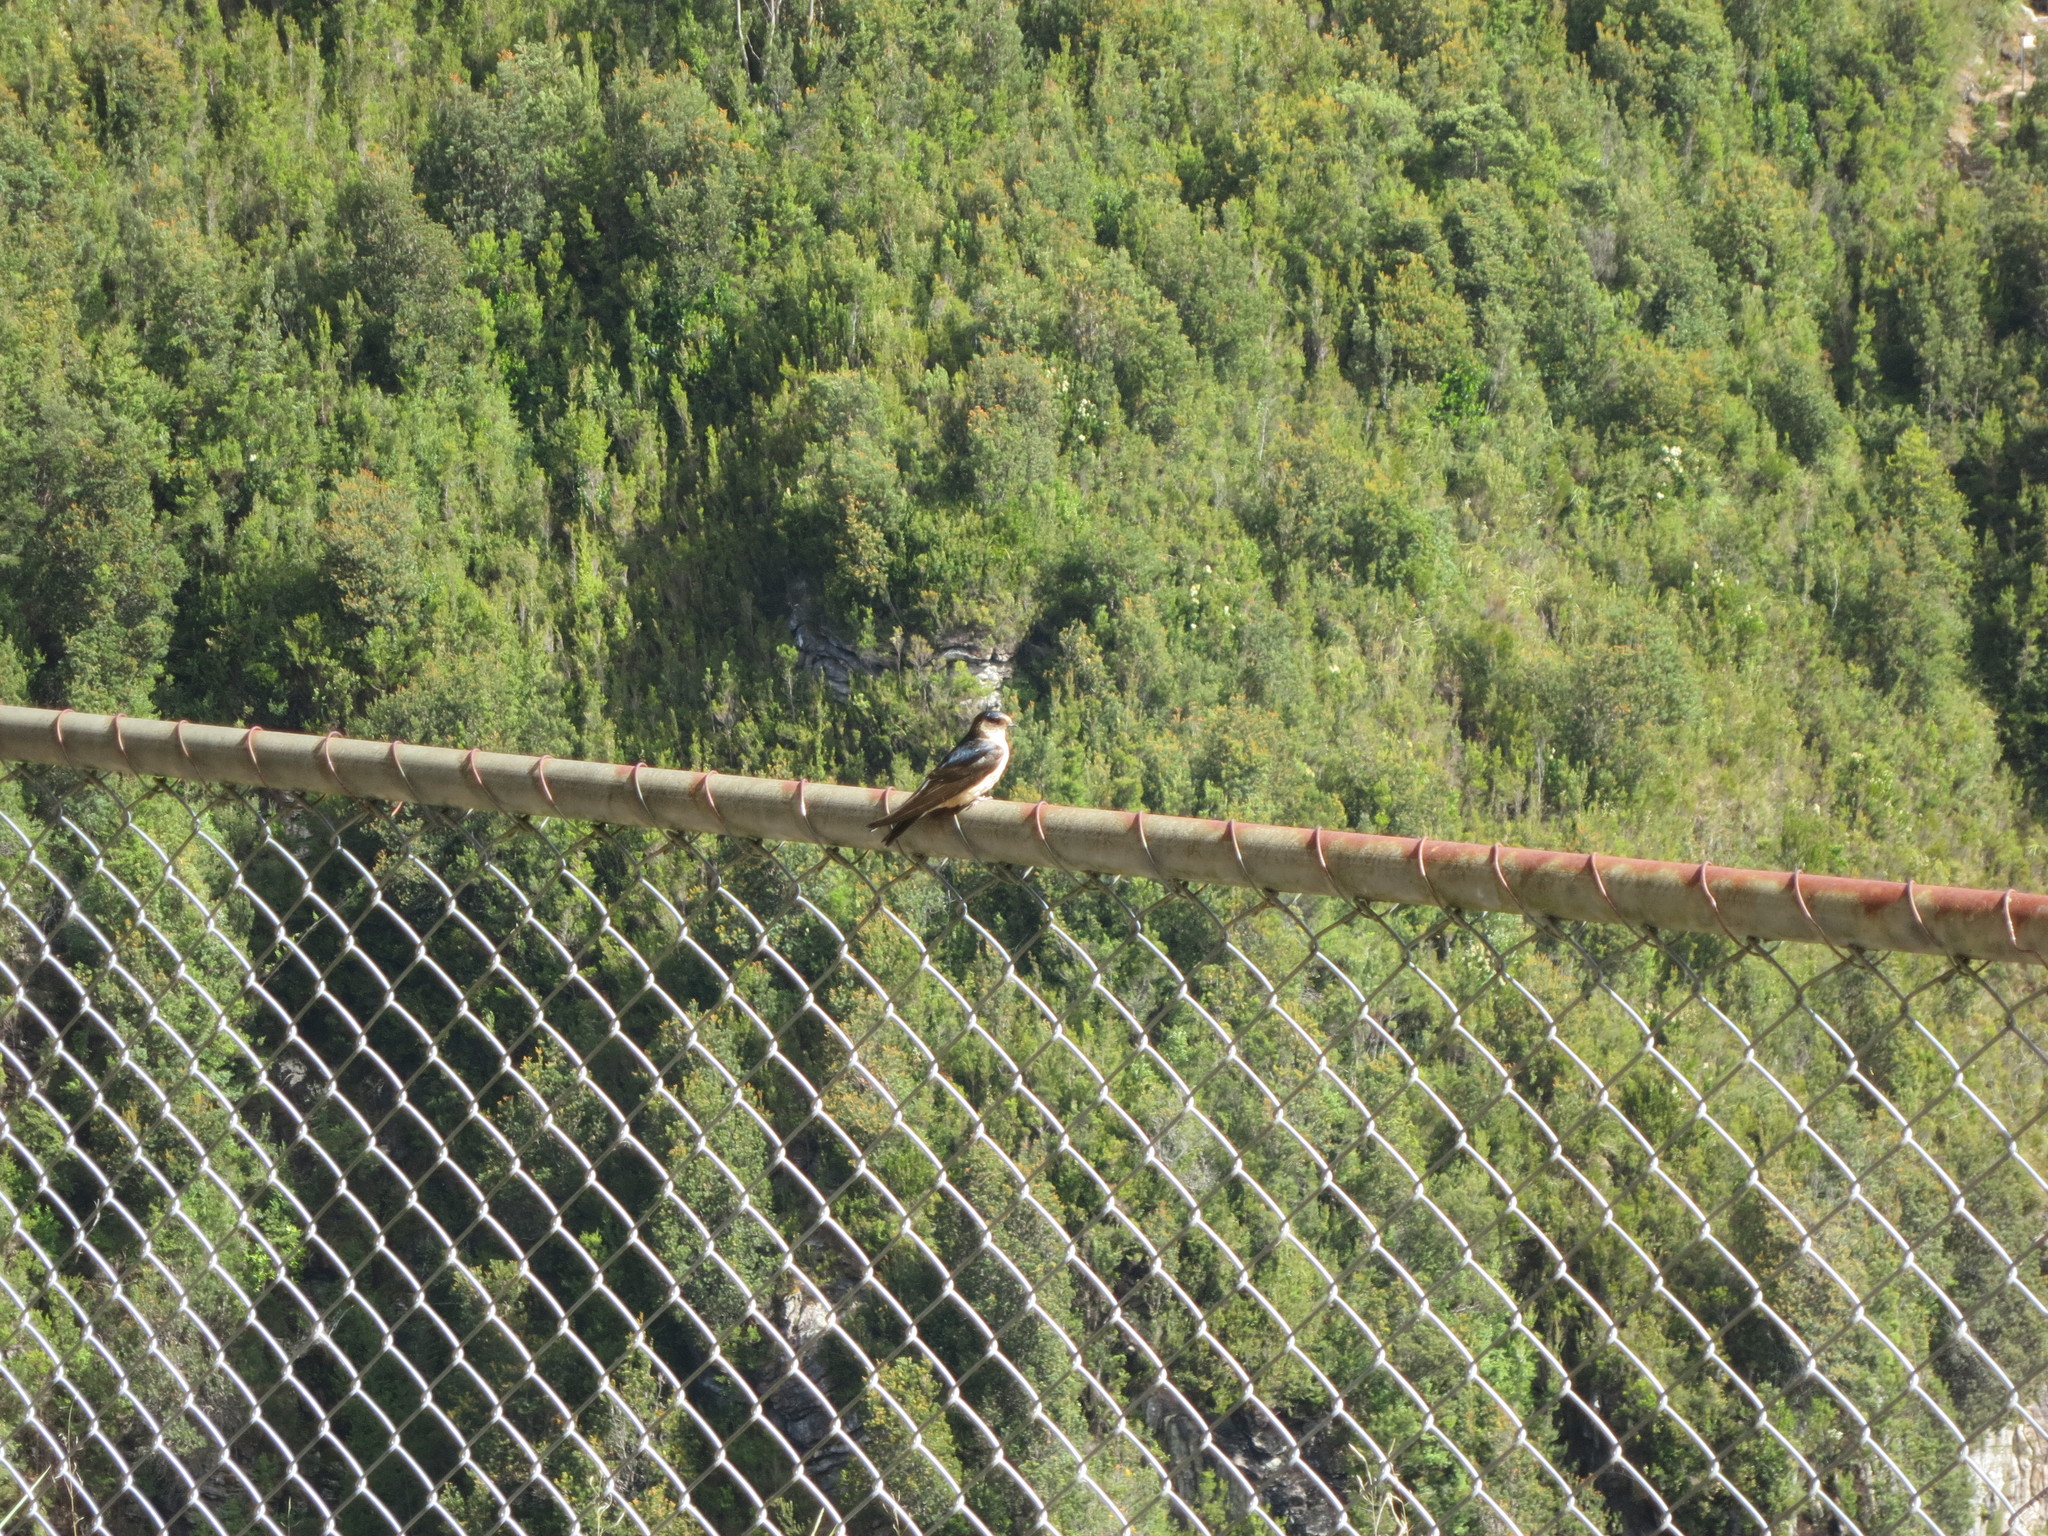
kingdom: Animalia
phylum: Chordata
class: Aves
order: Passeriformes
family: Hirundinidae
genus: Petrochelidon
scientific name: Petrochelidon nigricans
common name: Tree martin
